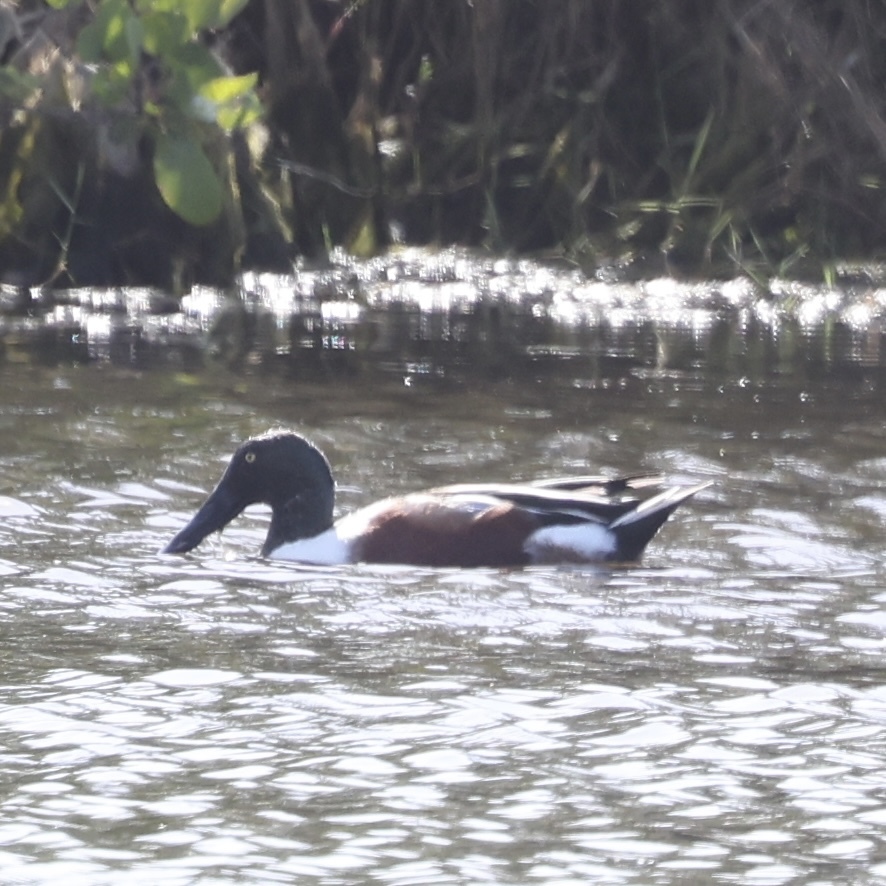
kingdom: Animalia
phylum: Chordata
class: Aves
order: Anseriformes
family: Anatidae
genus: Spatula
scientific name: Spatula clypeata
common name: Northern shoveler
